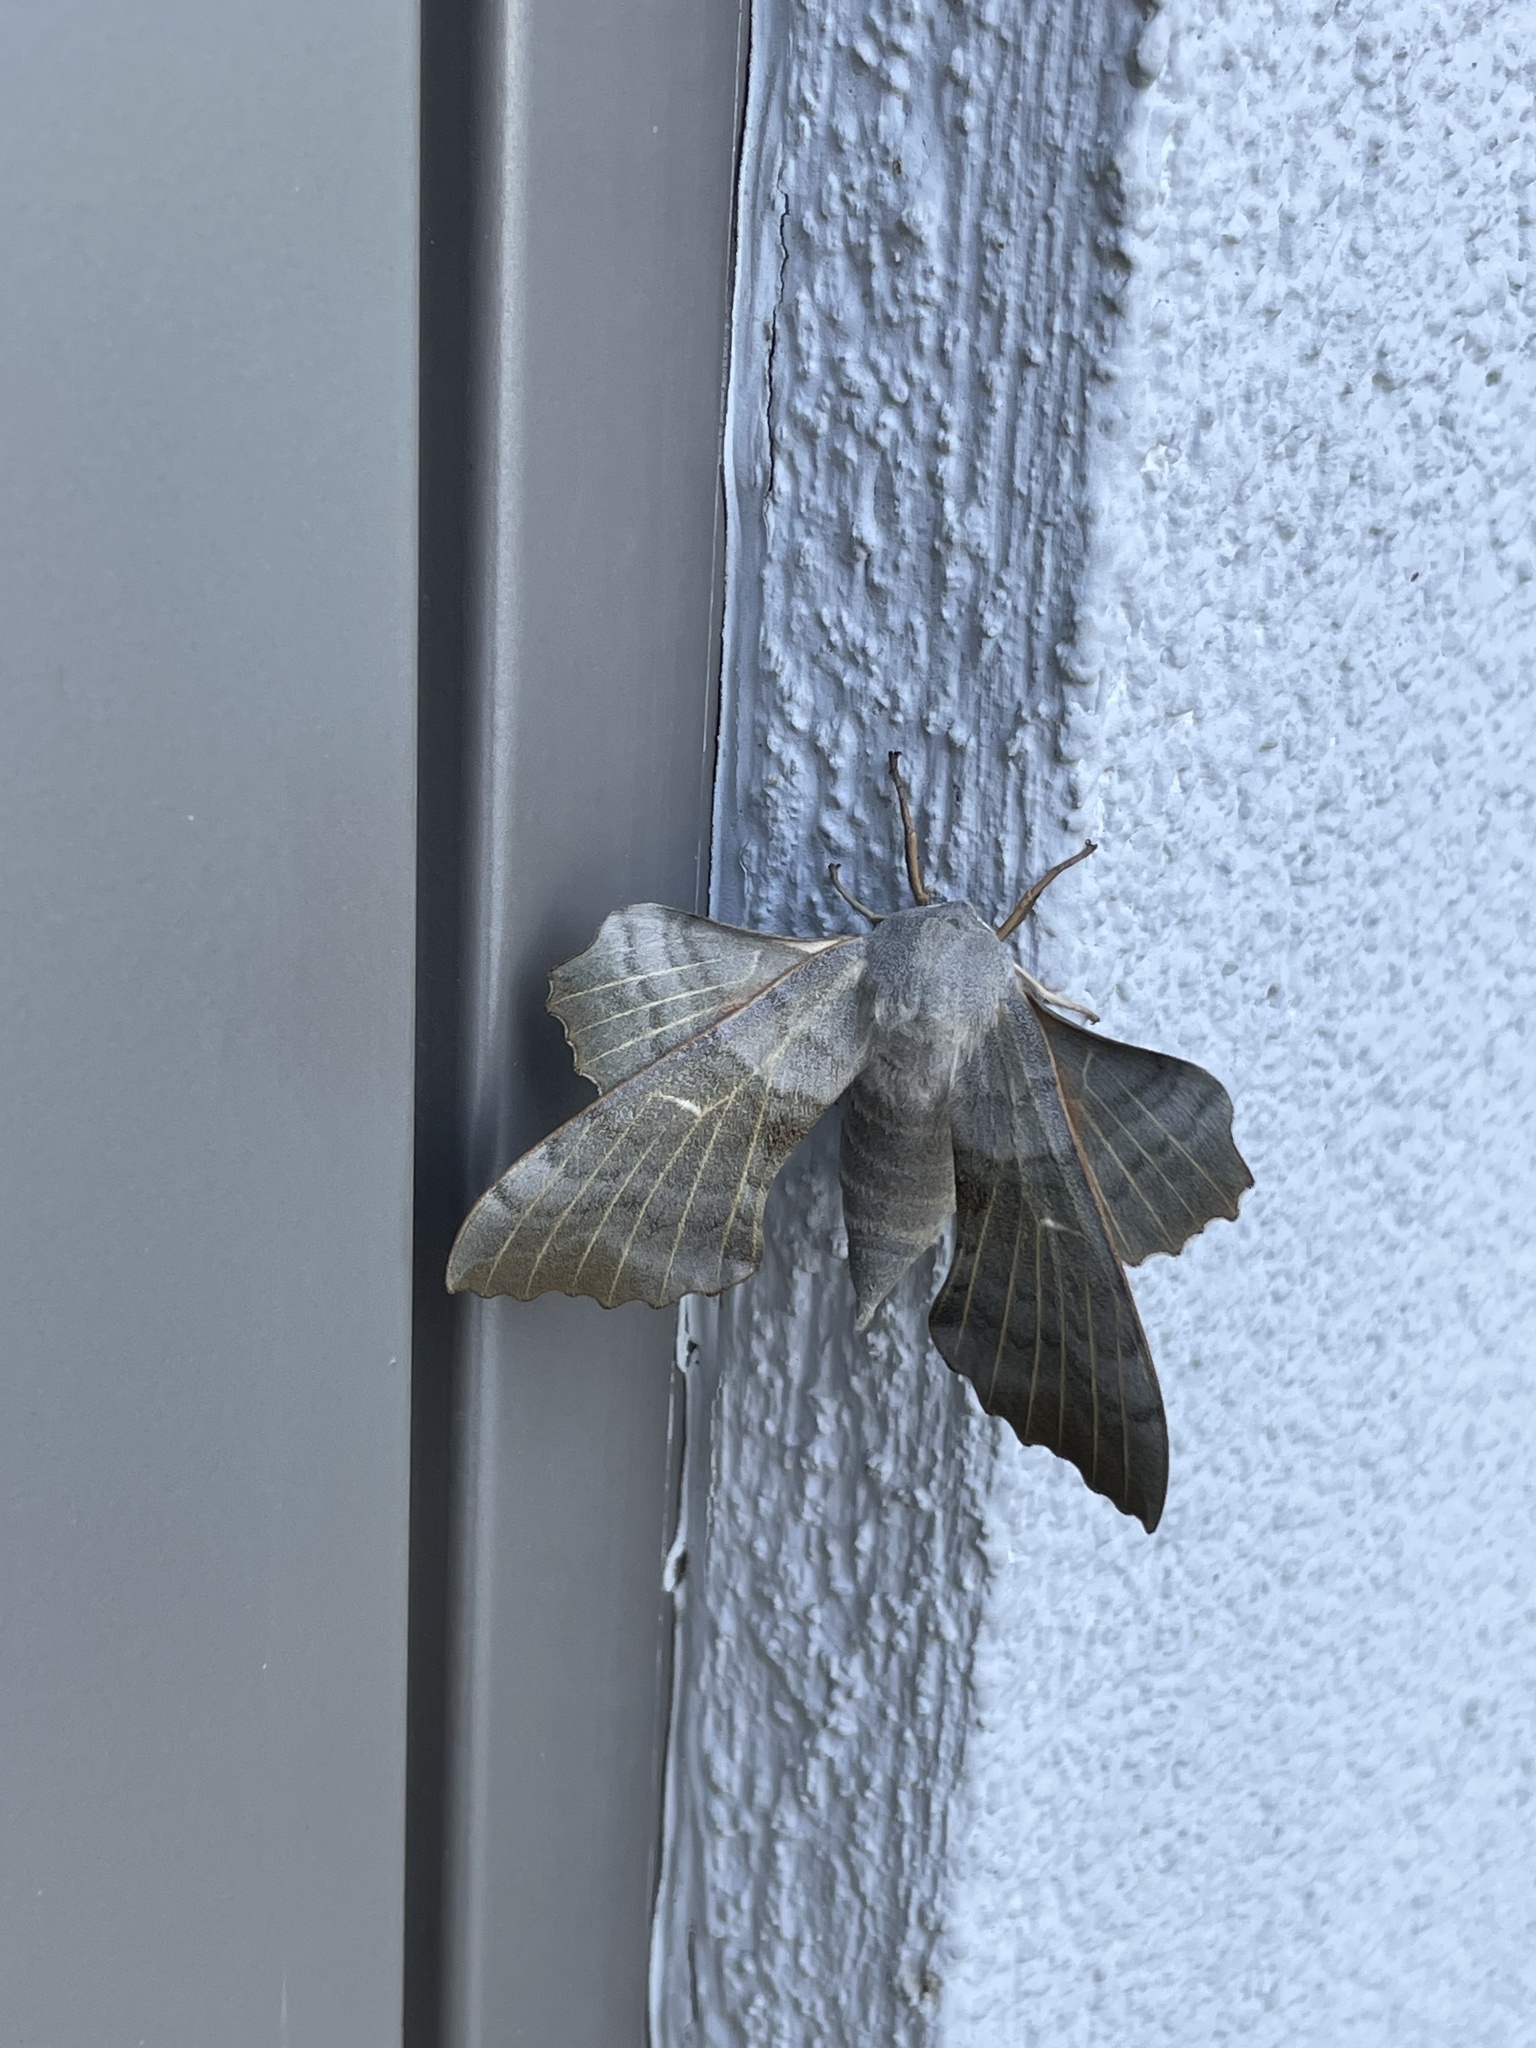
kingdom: Animalia
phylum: Arthropoda
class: Insecta
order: Lepidoptera
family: Sphingidae
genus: Laothoe
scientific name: Laothoe populi
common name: Poplar hawk-moth
